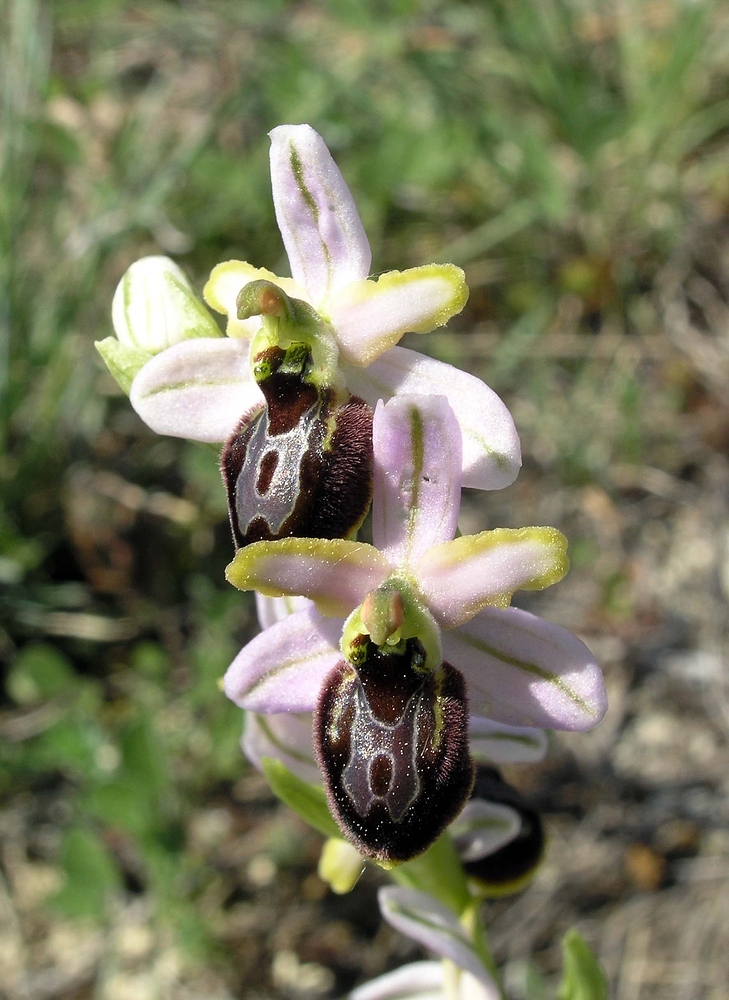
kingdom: Plantae
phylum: Tracheophyta
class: Liliopsida
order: Asparagales
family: Orchidaceae
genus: Ophrys
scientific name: Ophrys arachnitiformis
